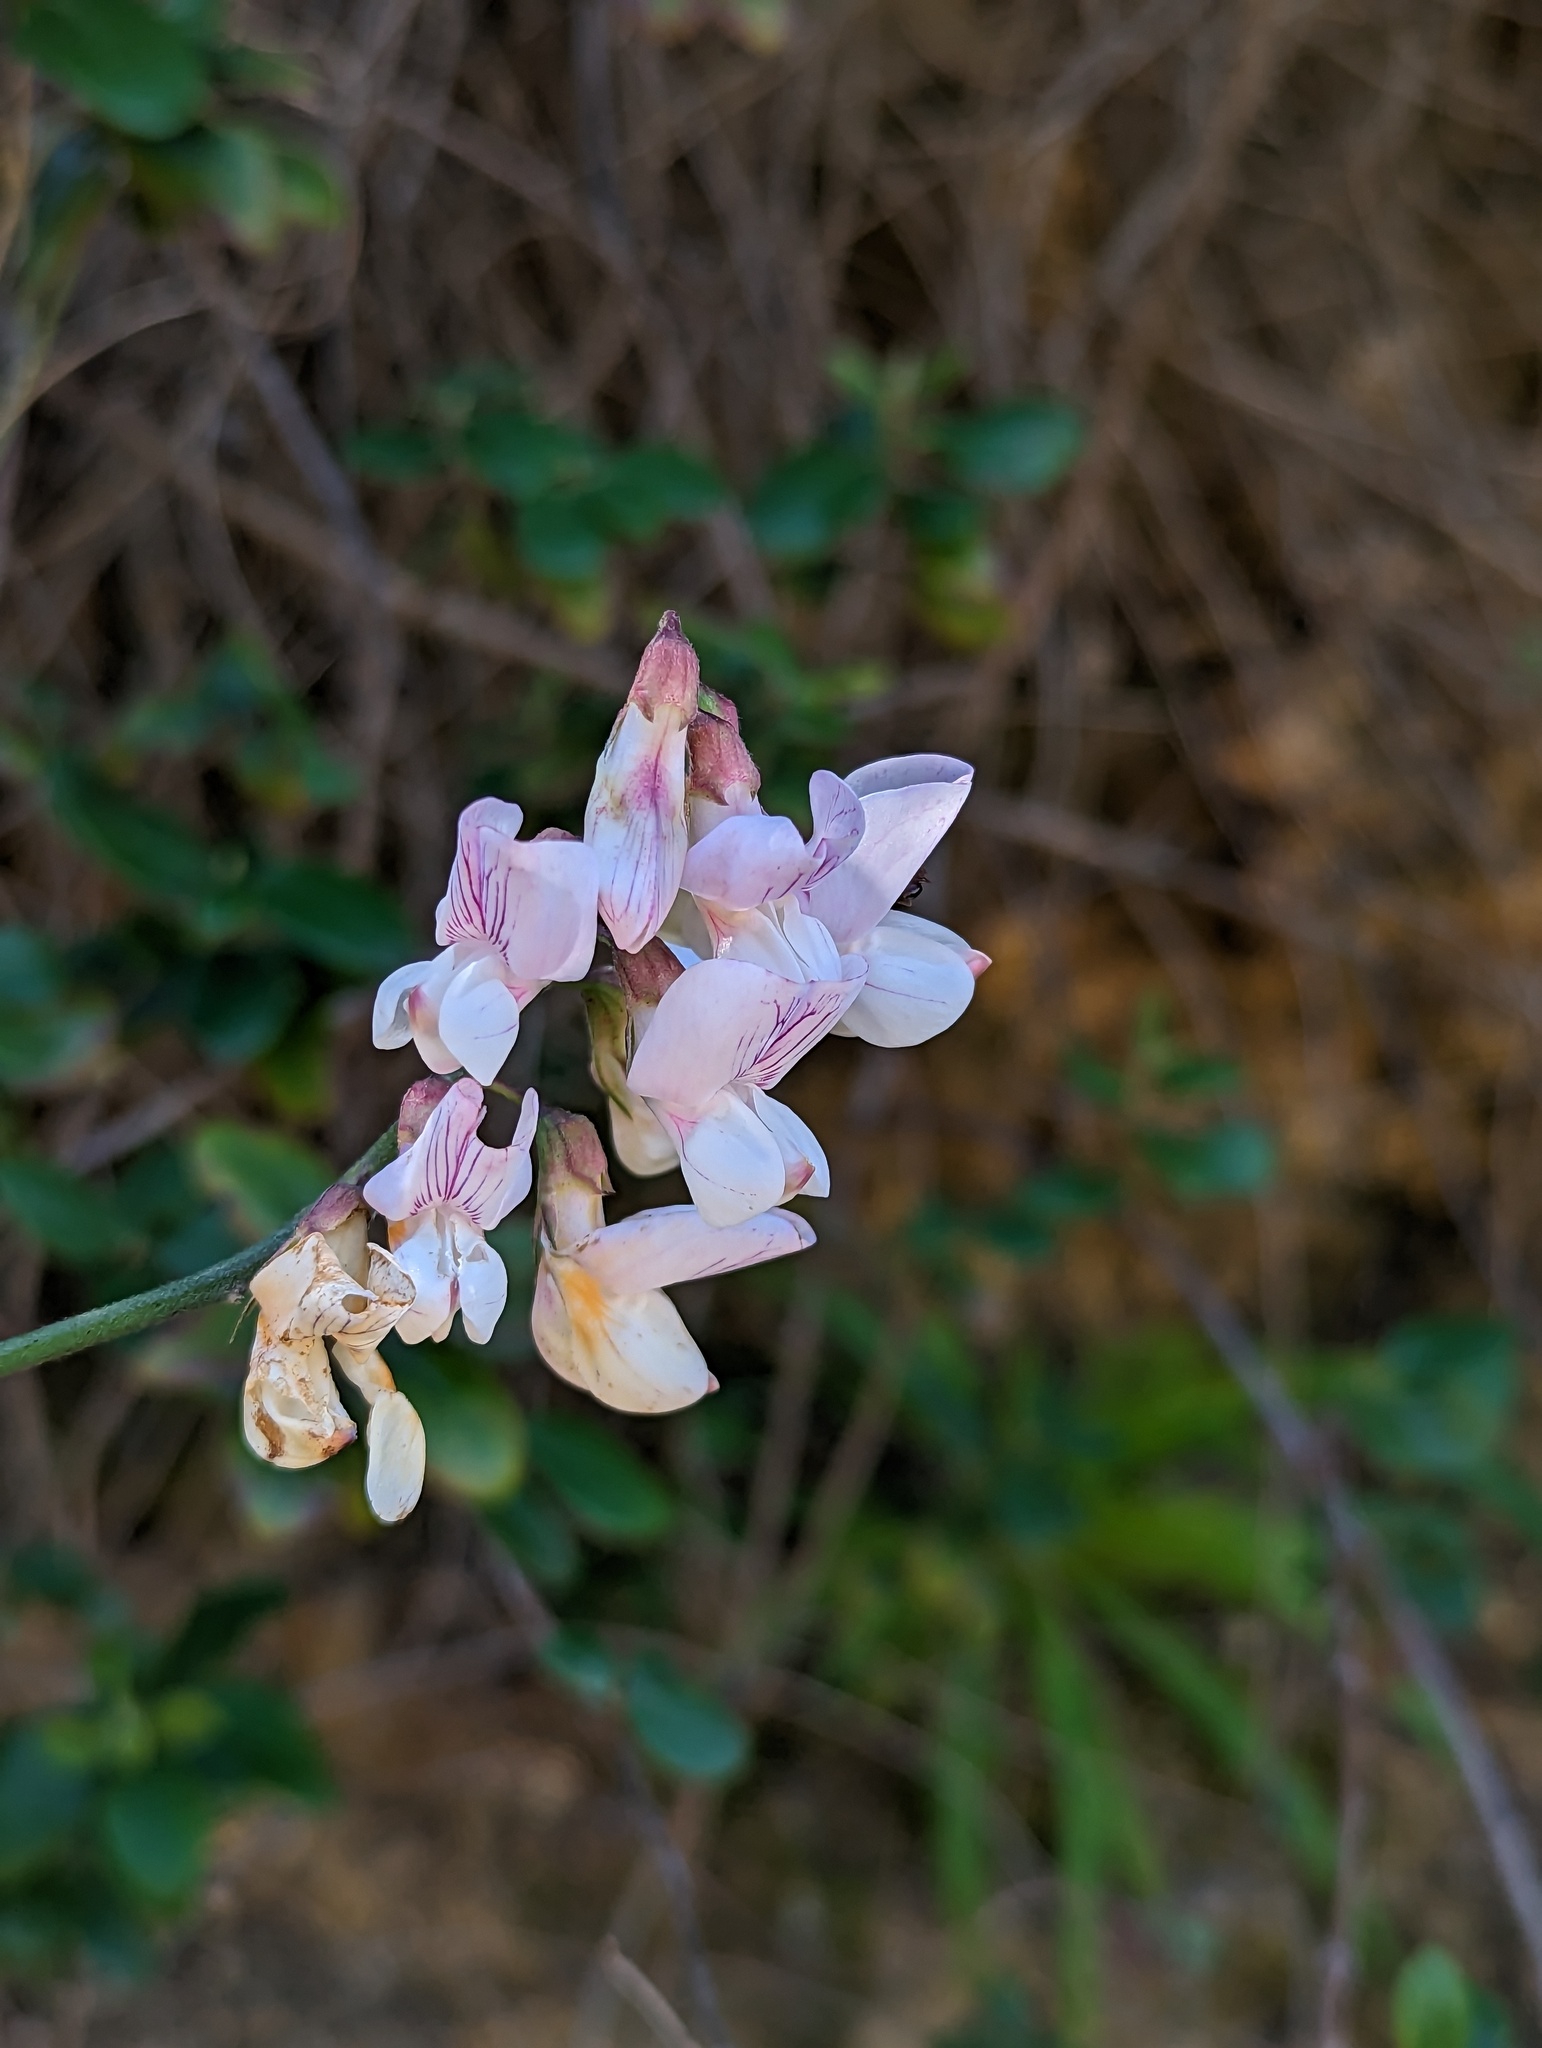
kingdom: Plantae
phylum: Tracheophyta
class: Magnoliopsida
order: Fabales
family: Fabaceae
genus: Lathyrus
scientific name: Lathyrus vestitus
